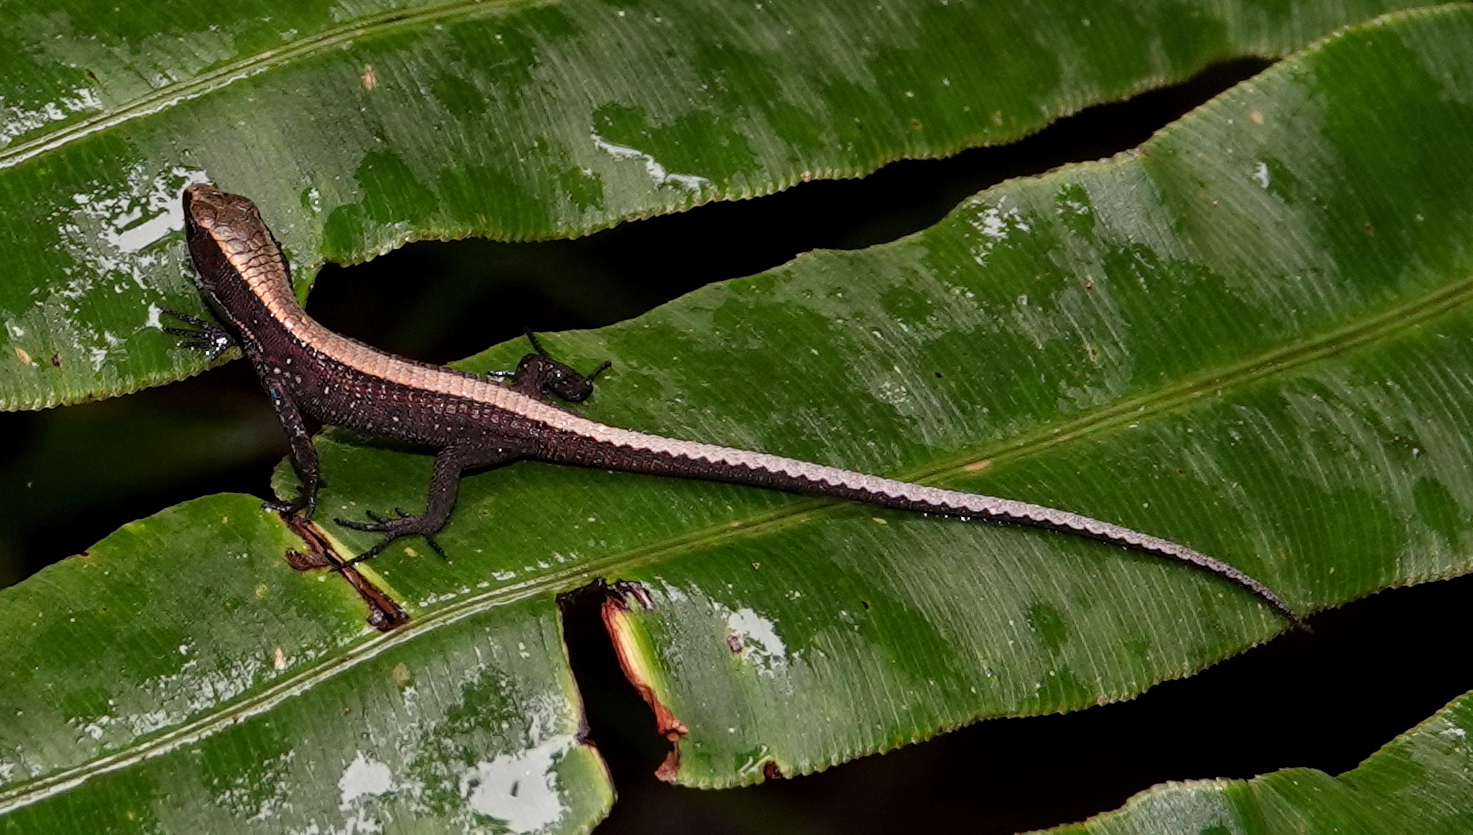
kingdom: Animalia
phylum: Chordata
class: Squamata
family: Gymnophthalmidae
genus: Pholidobolus
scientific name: Pholidobolus vertebralis
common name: Brown prionodactylus
